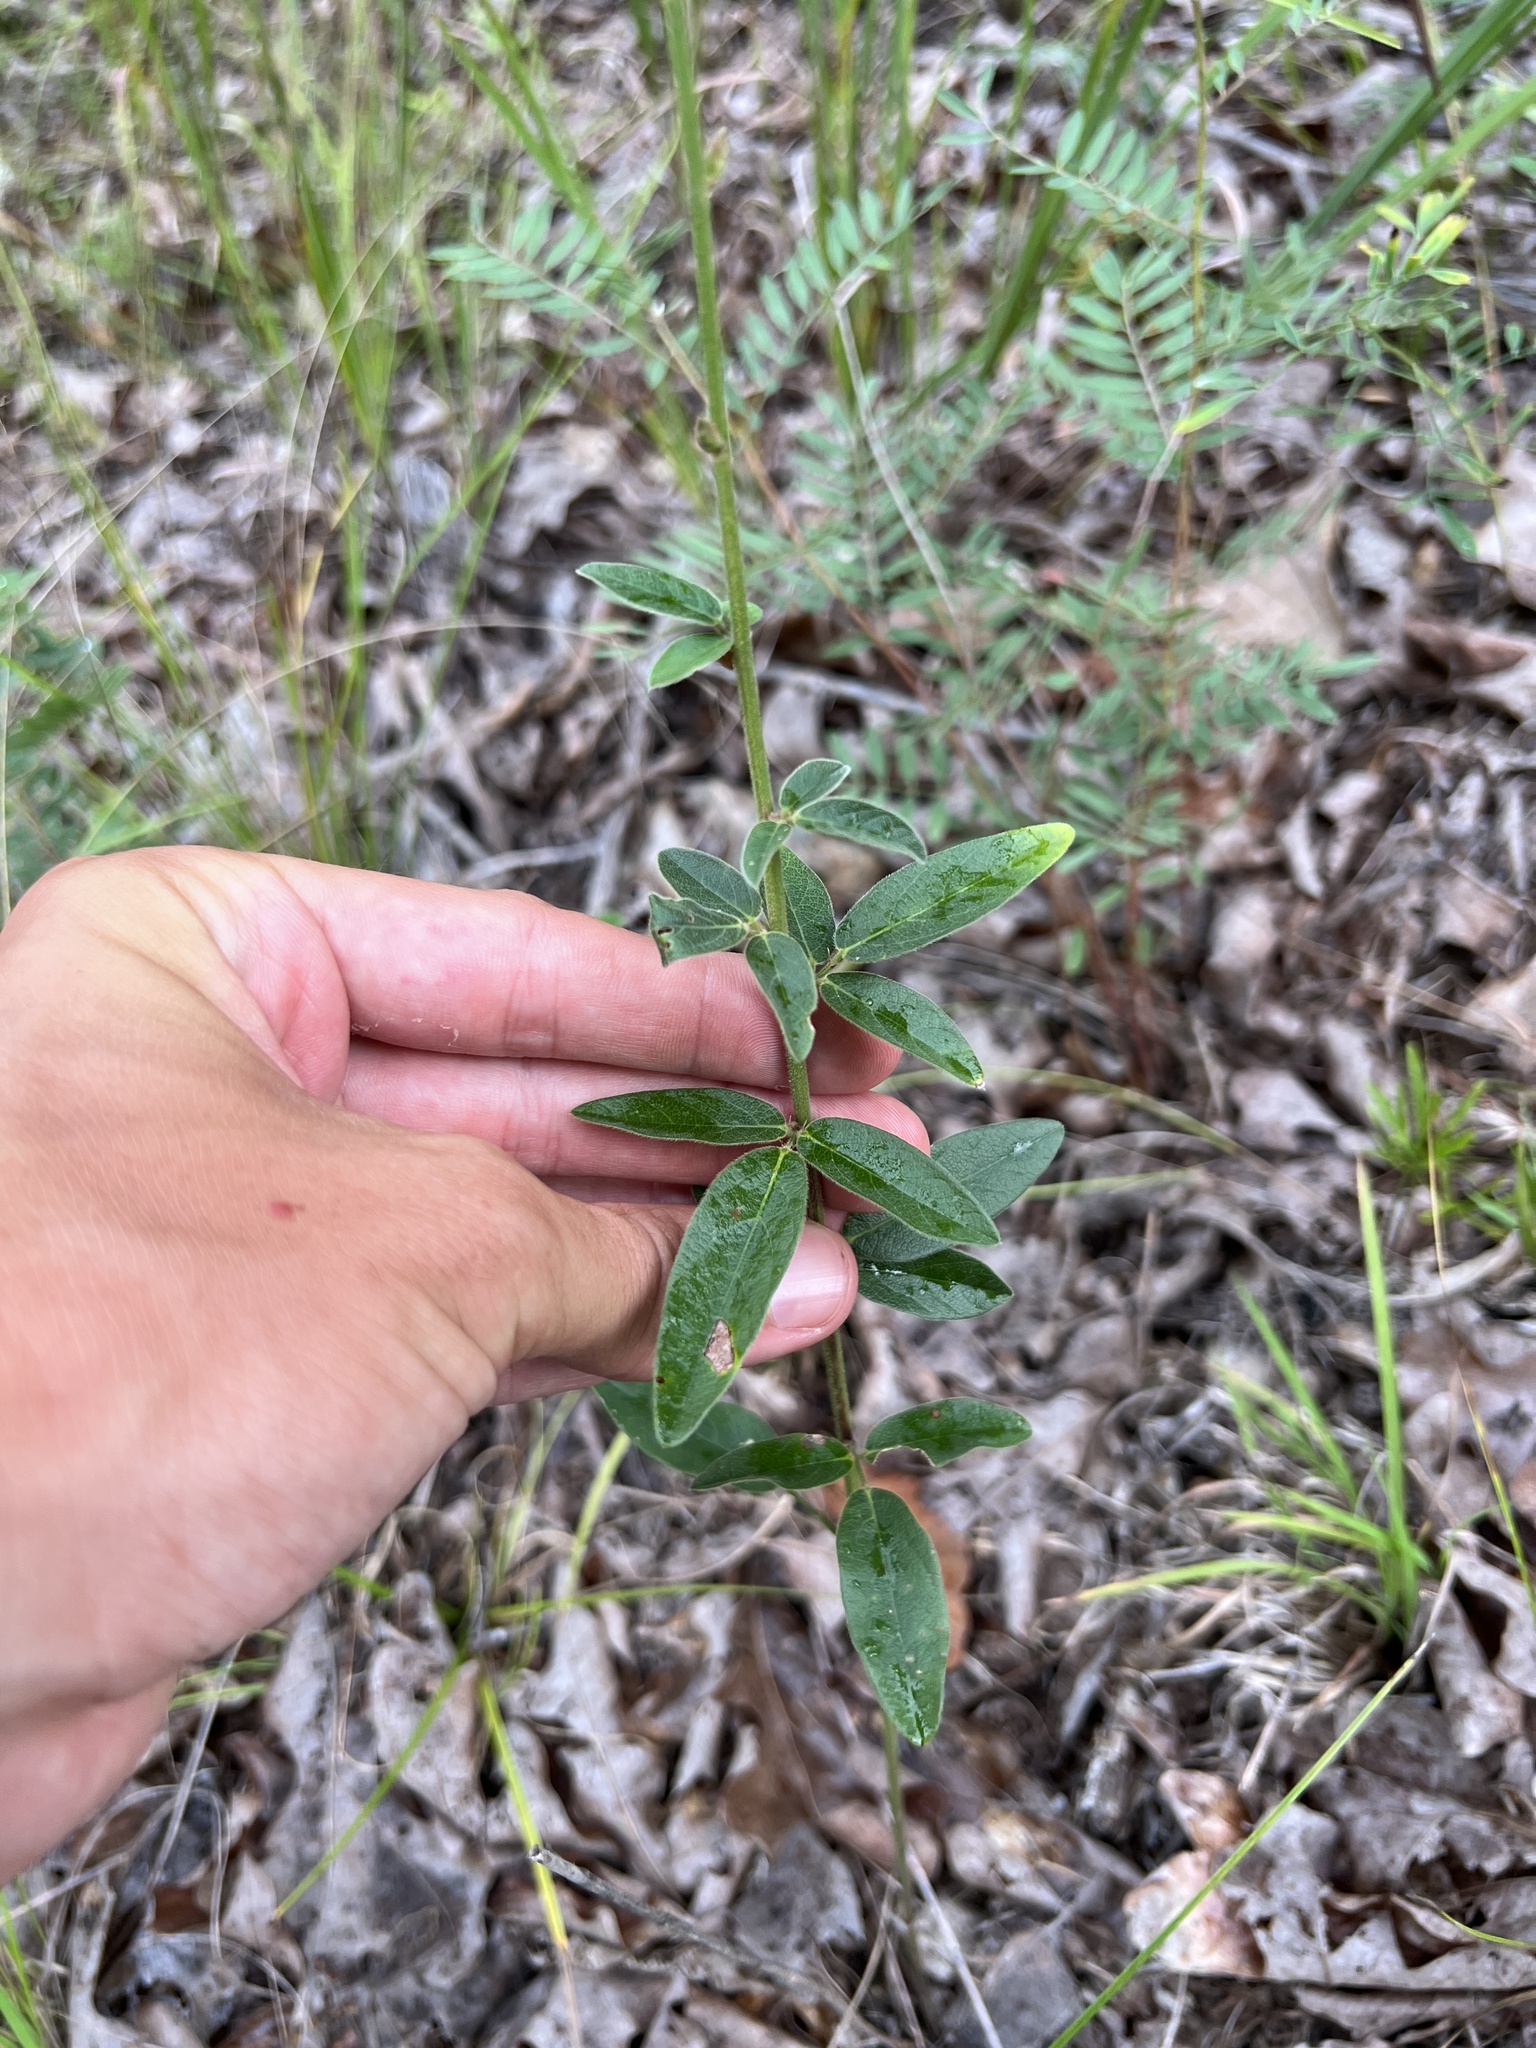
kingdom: Plantae
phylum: Tracheophyta
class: Magnoliopsida
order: Fabales
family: Fabaceae
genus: Desmodium
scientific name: Desmodium obtusum
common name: Stiff tick trefoil
